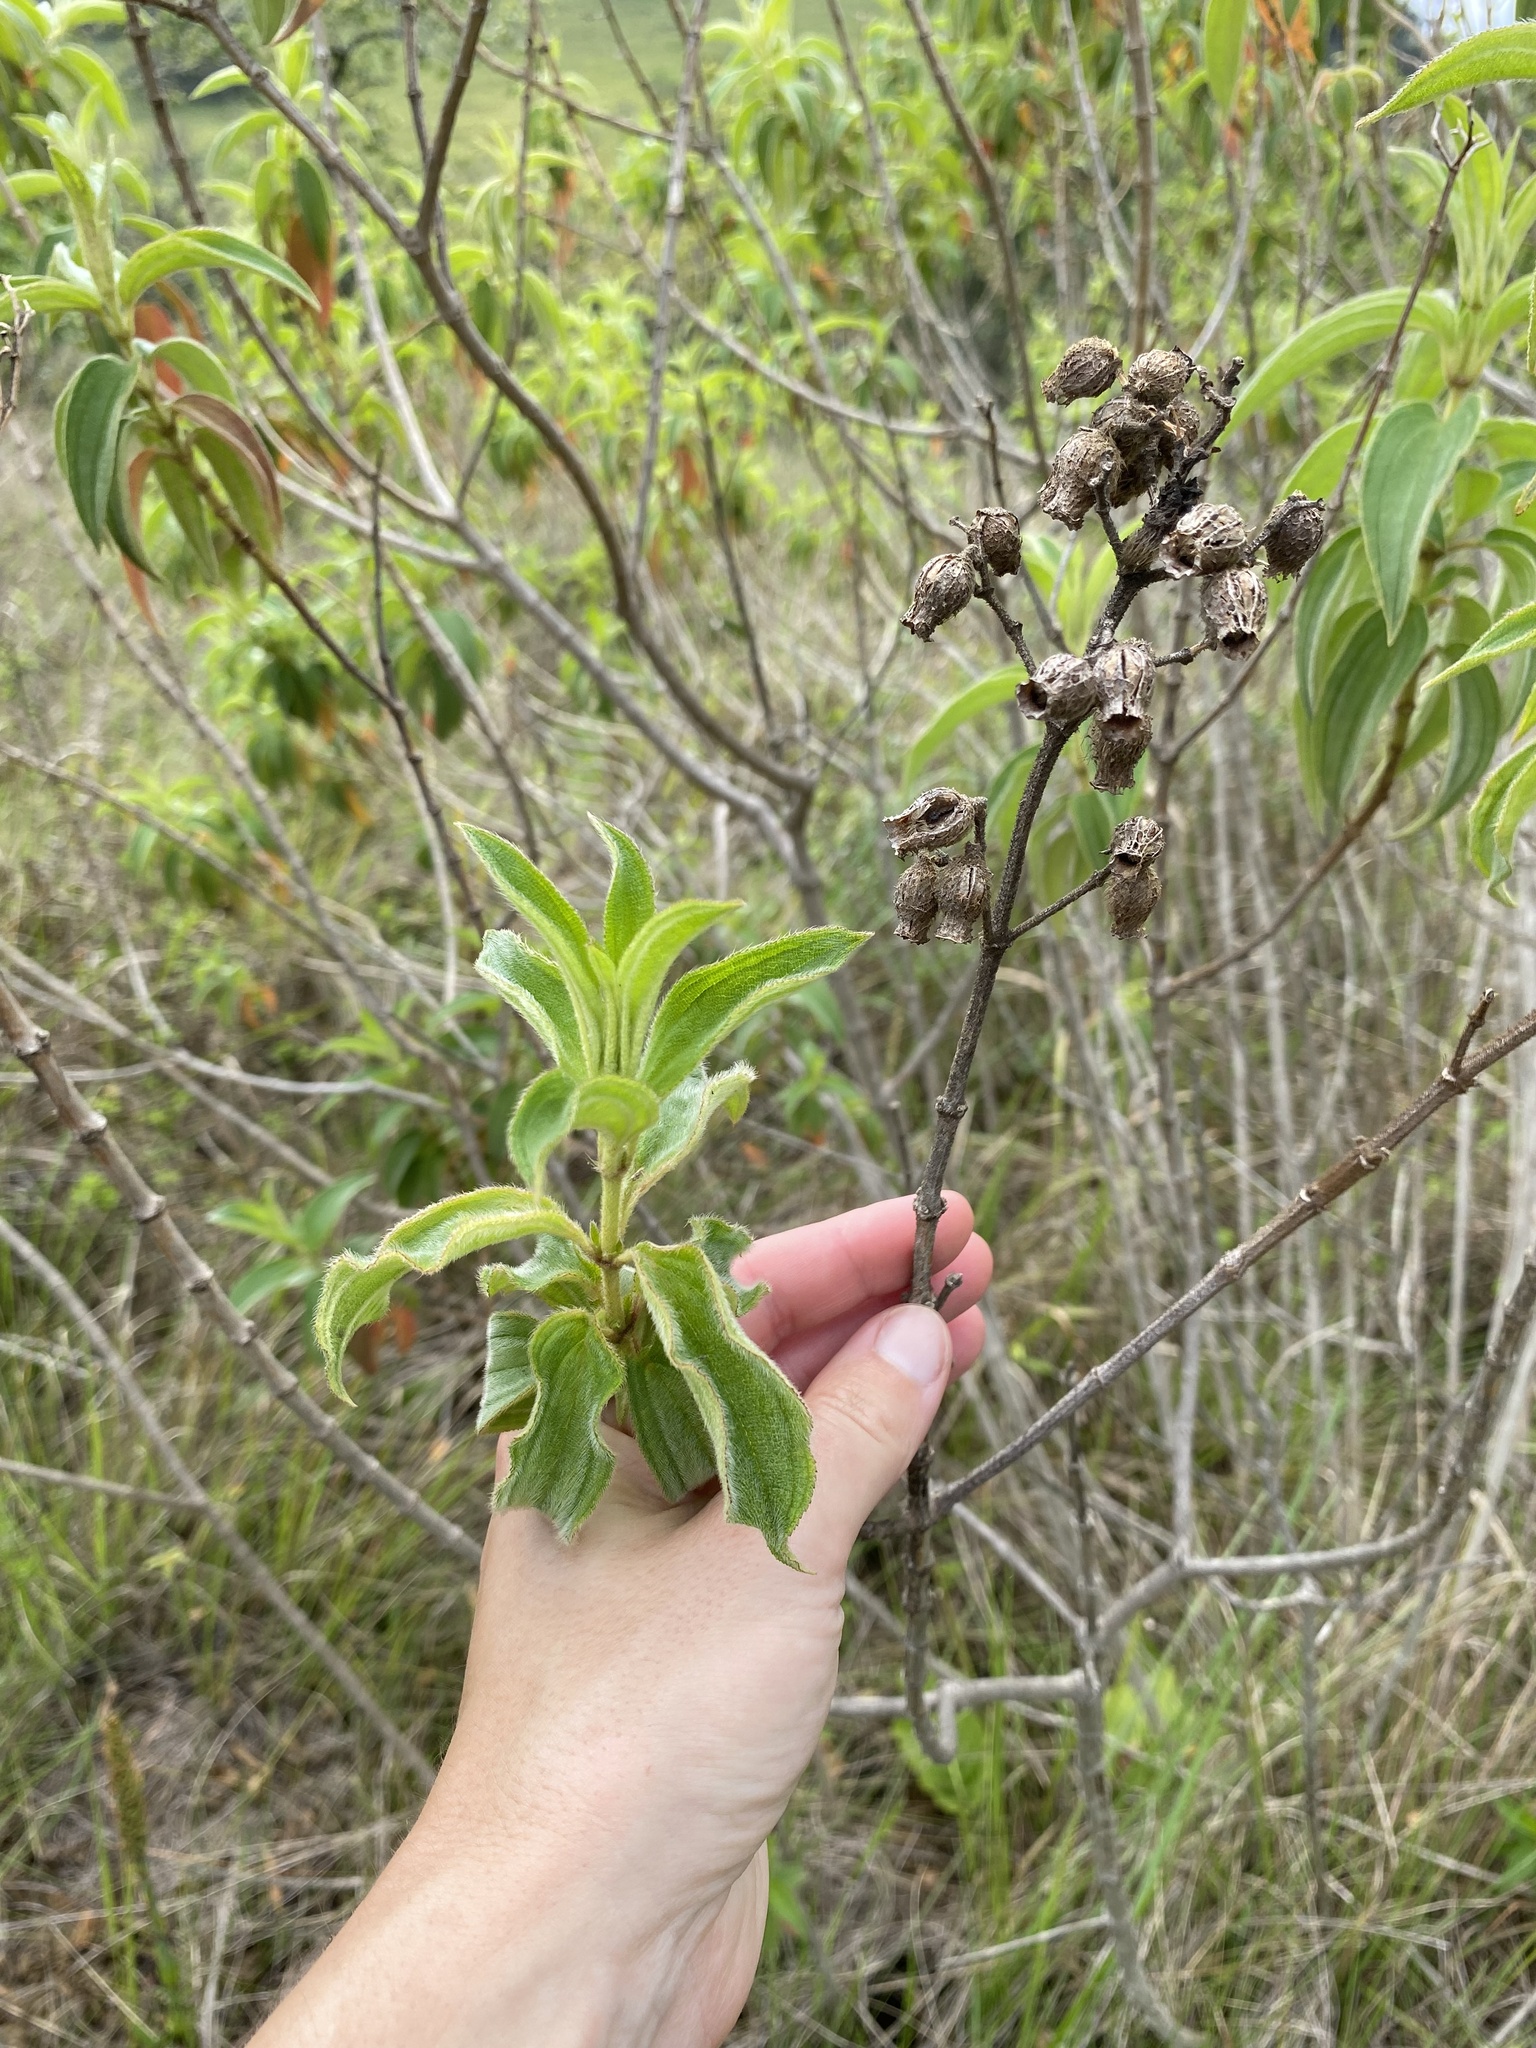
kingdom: Plantae
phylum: Tracheophyta
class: Magnoliopsida
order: Myrtales
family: Melastomataceae
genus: Rosettea
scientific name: Rosettea princeps
